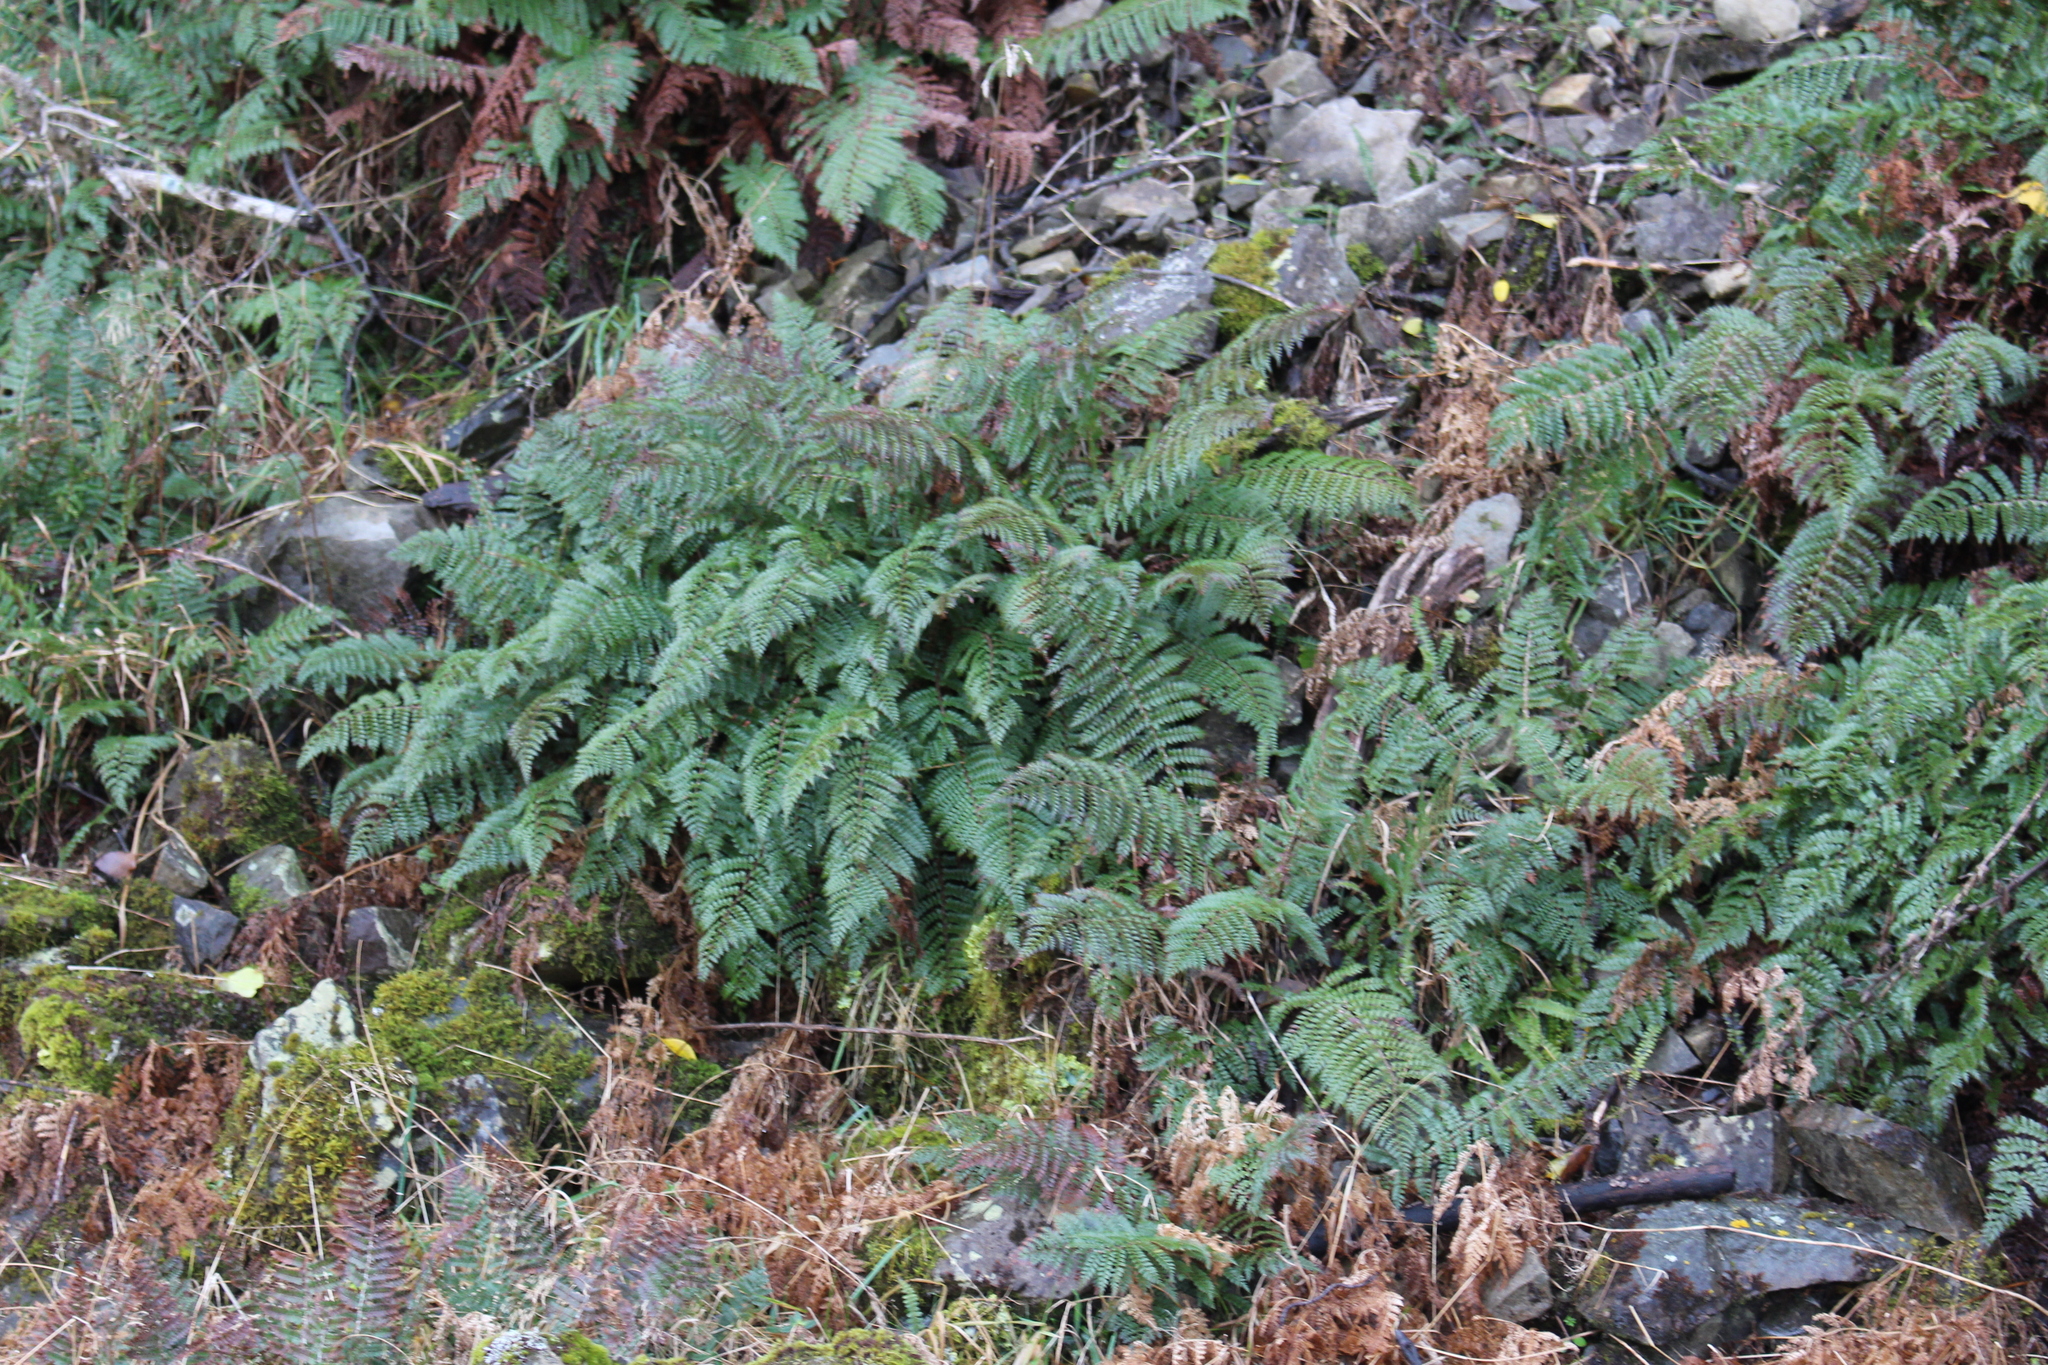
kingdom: Plantae
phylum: Tracheophyta
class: Polypodiopsida
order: Polypodiales
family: Dryopteridaceae
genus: Polystichum
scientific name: Polystichum vestitum
